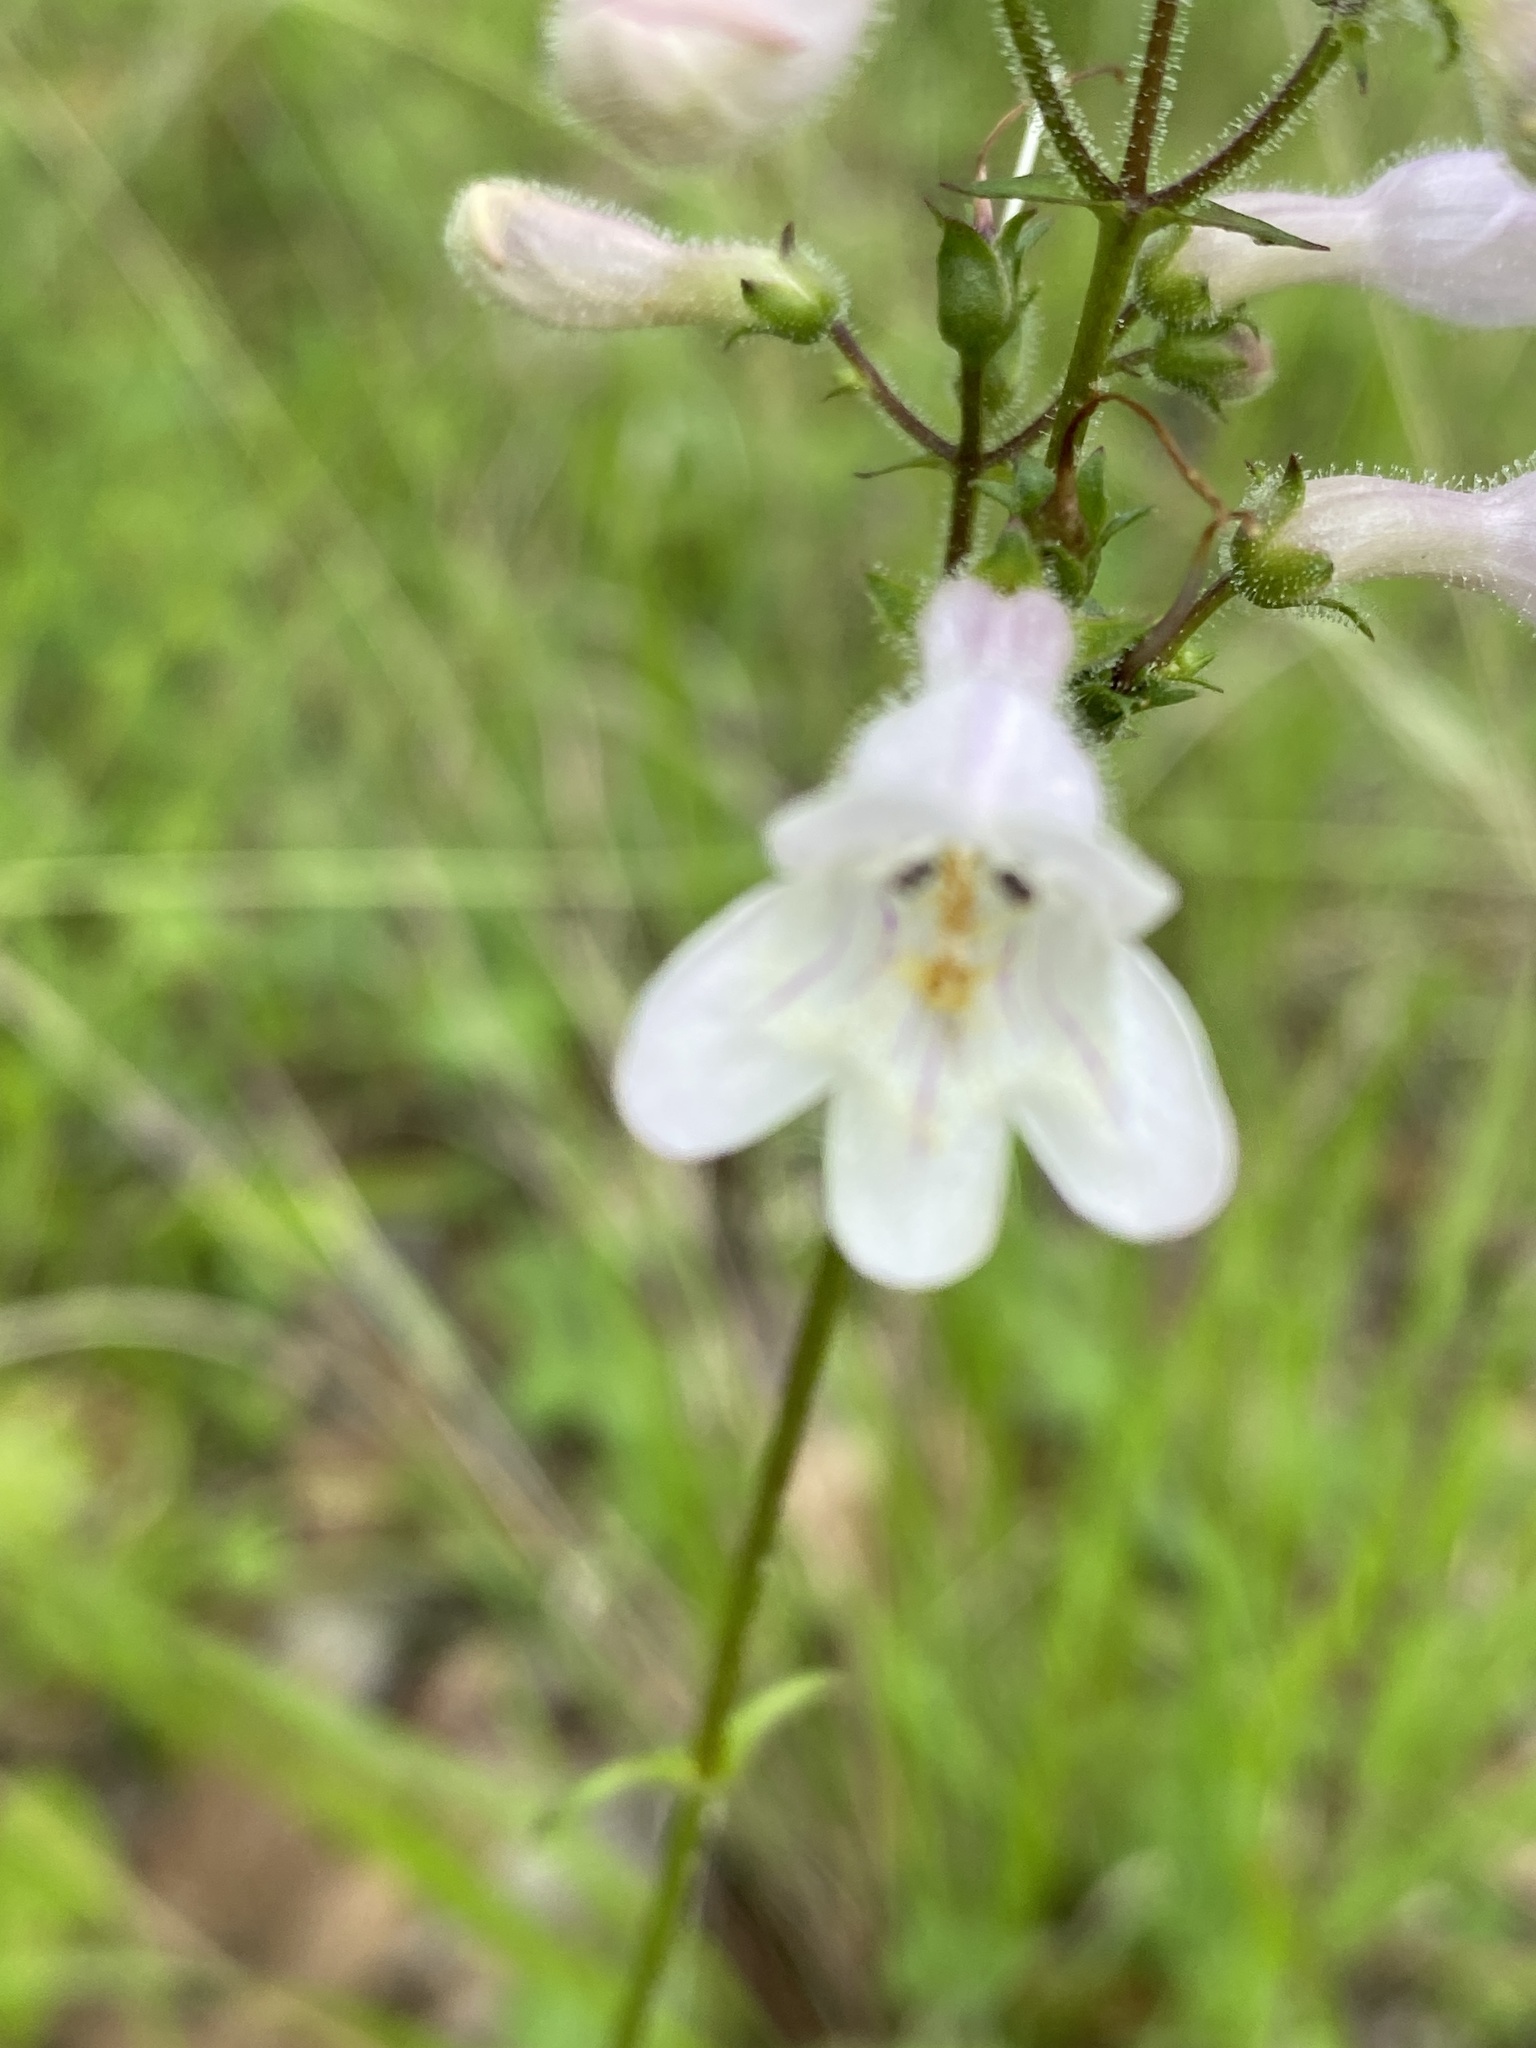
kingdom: Plantae
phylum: Tracheophyta
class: Magnoliopsida
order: Lamiales
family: Plantaginaceae
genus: Penstemon
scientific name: Penstemon laevigatus
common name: Eastern beardtongue
